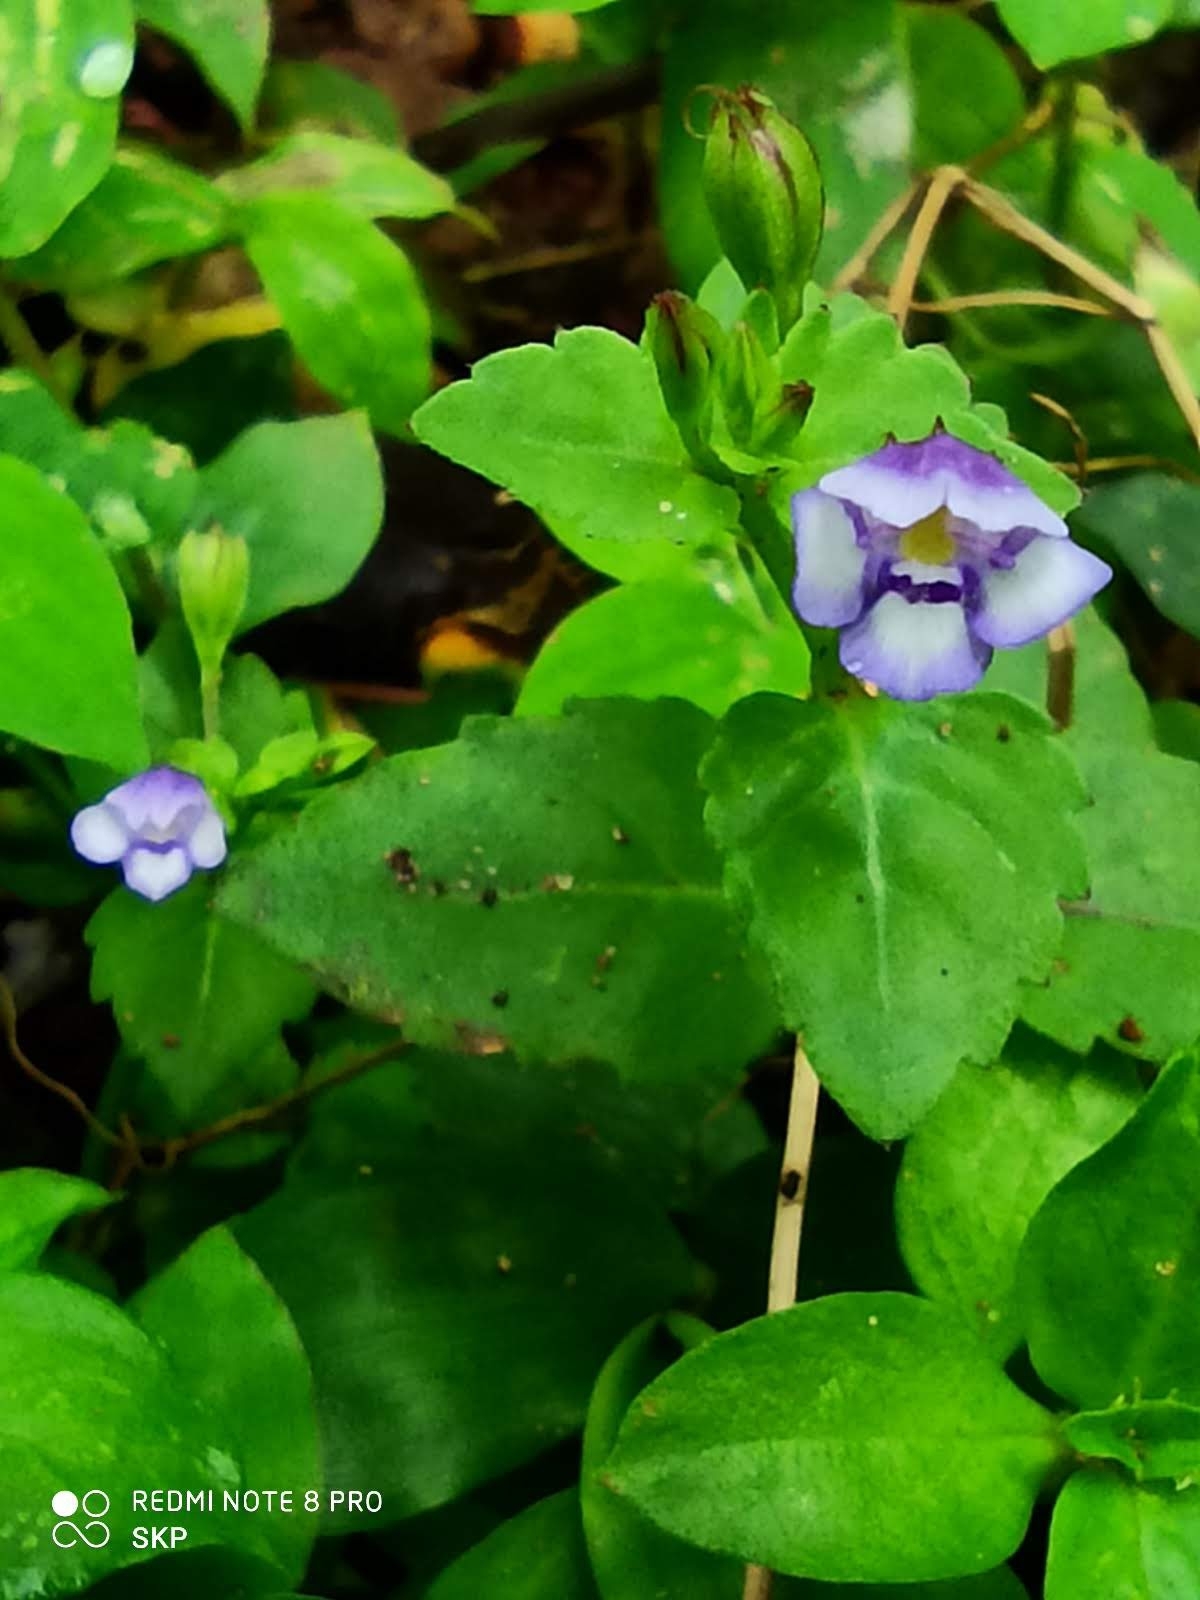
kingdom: Plantae
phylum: Tracheophyta
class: Magnoliopsida
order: Lamiales
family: Linderniaceae
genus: Torenia
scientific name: Torenia crustacea
